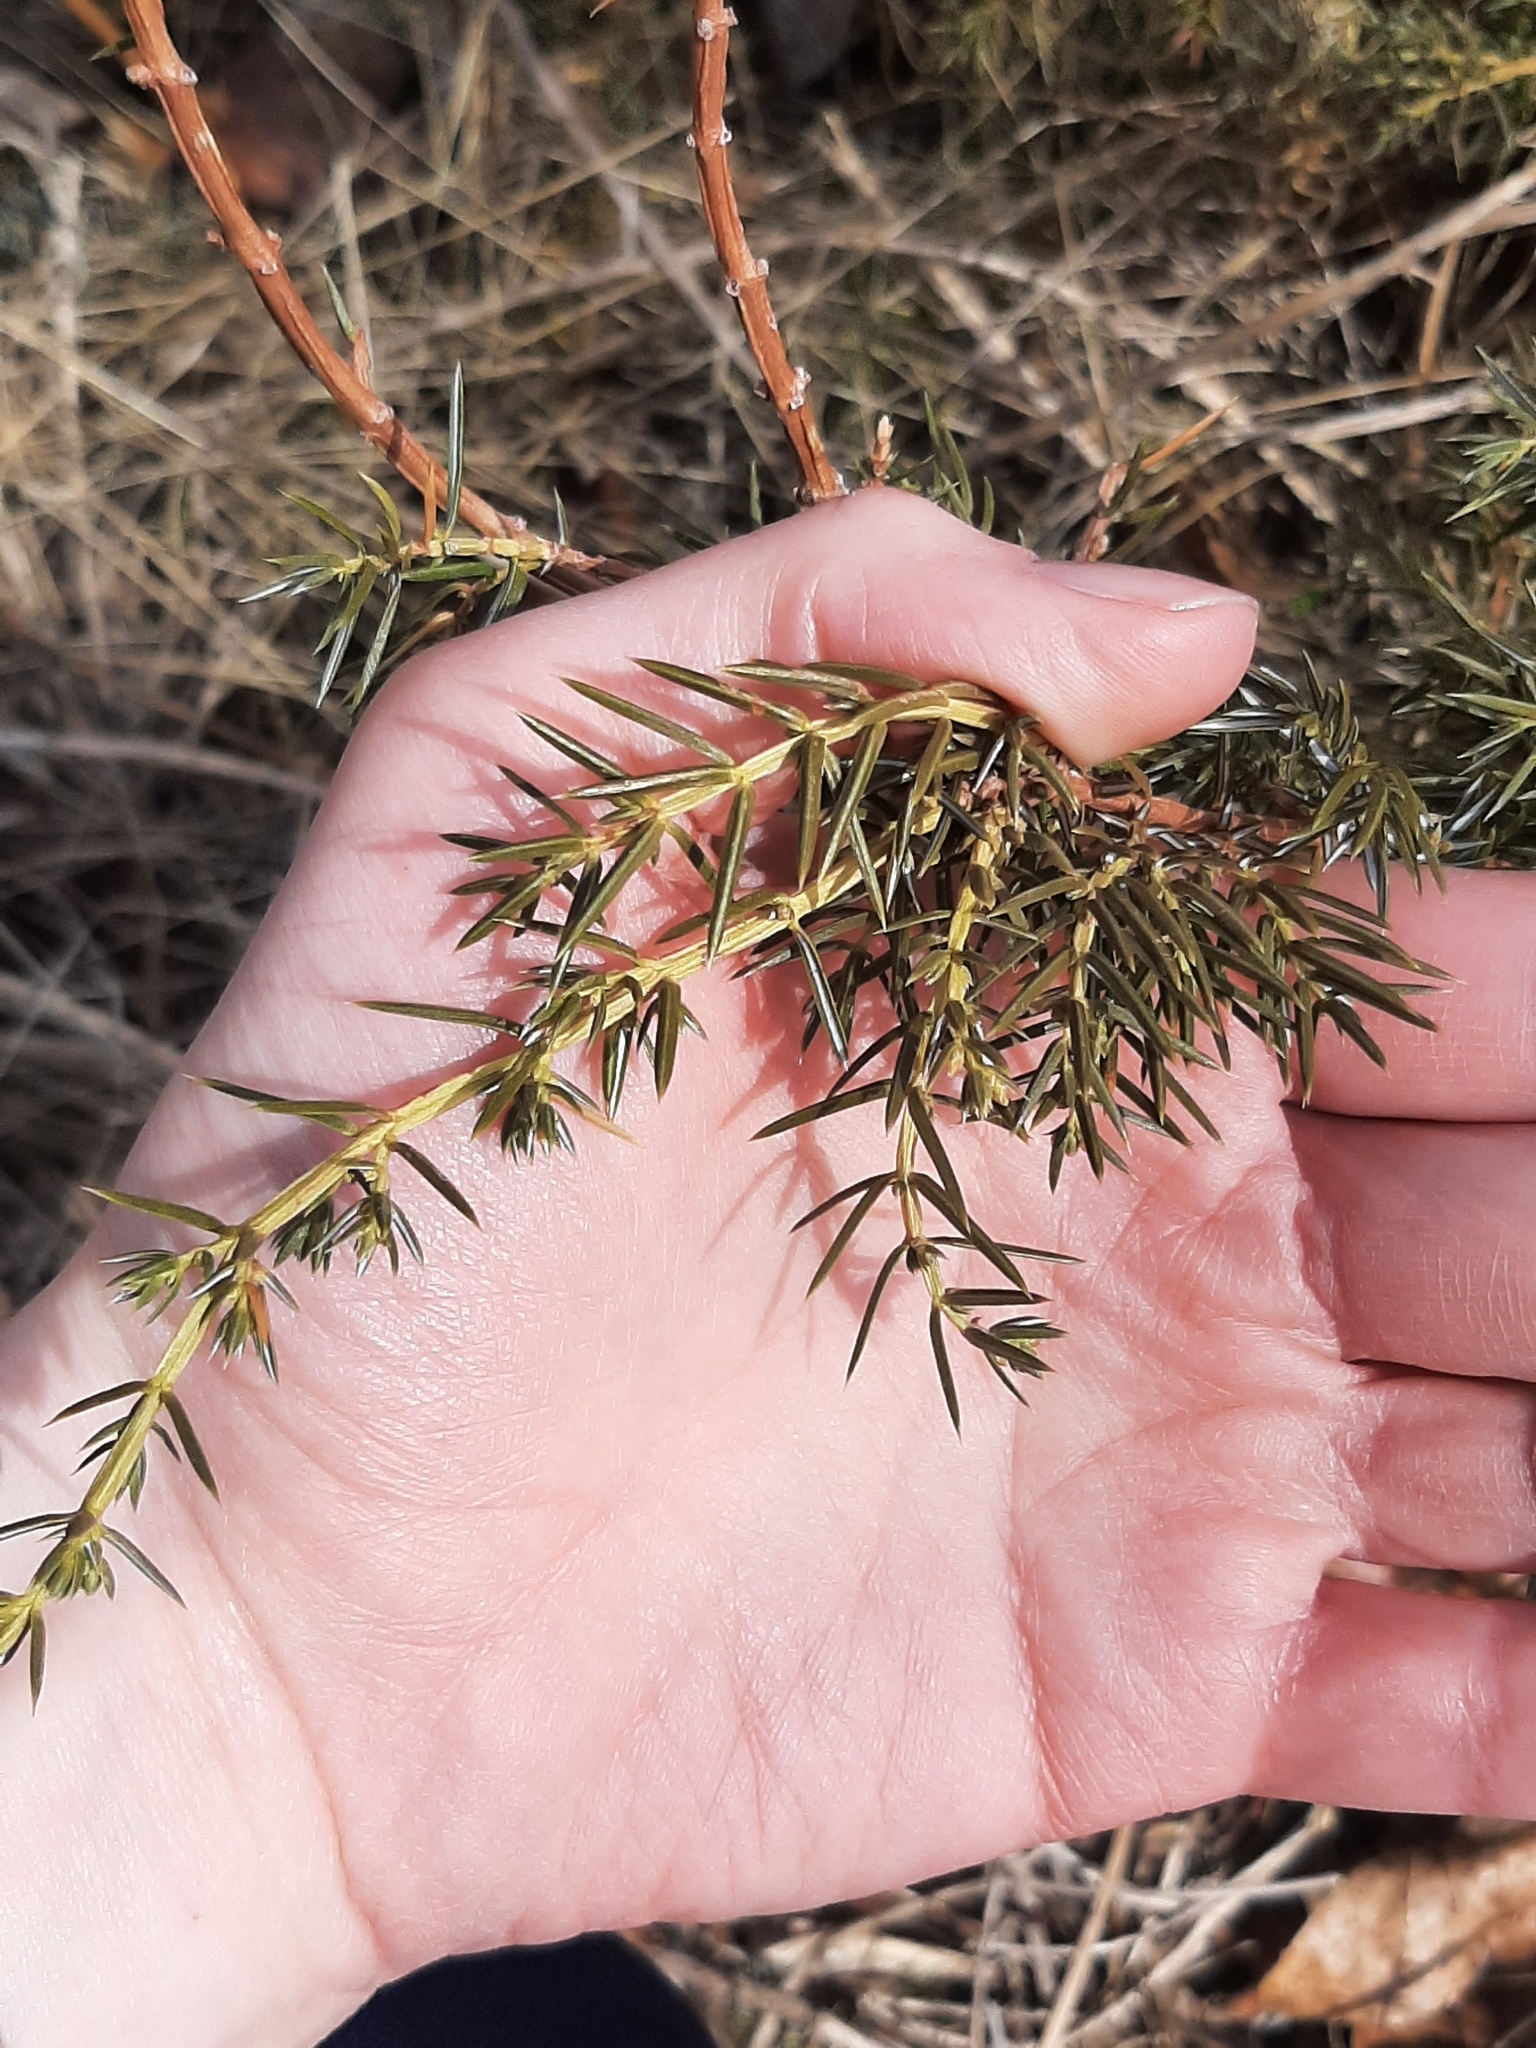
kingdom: Plantae
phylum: Tracheophyta
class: Pinopsida
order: Pinales
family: Cupressaceae
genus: Juniperus
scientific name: Juniperus communis
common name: Common juniper
